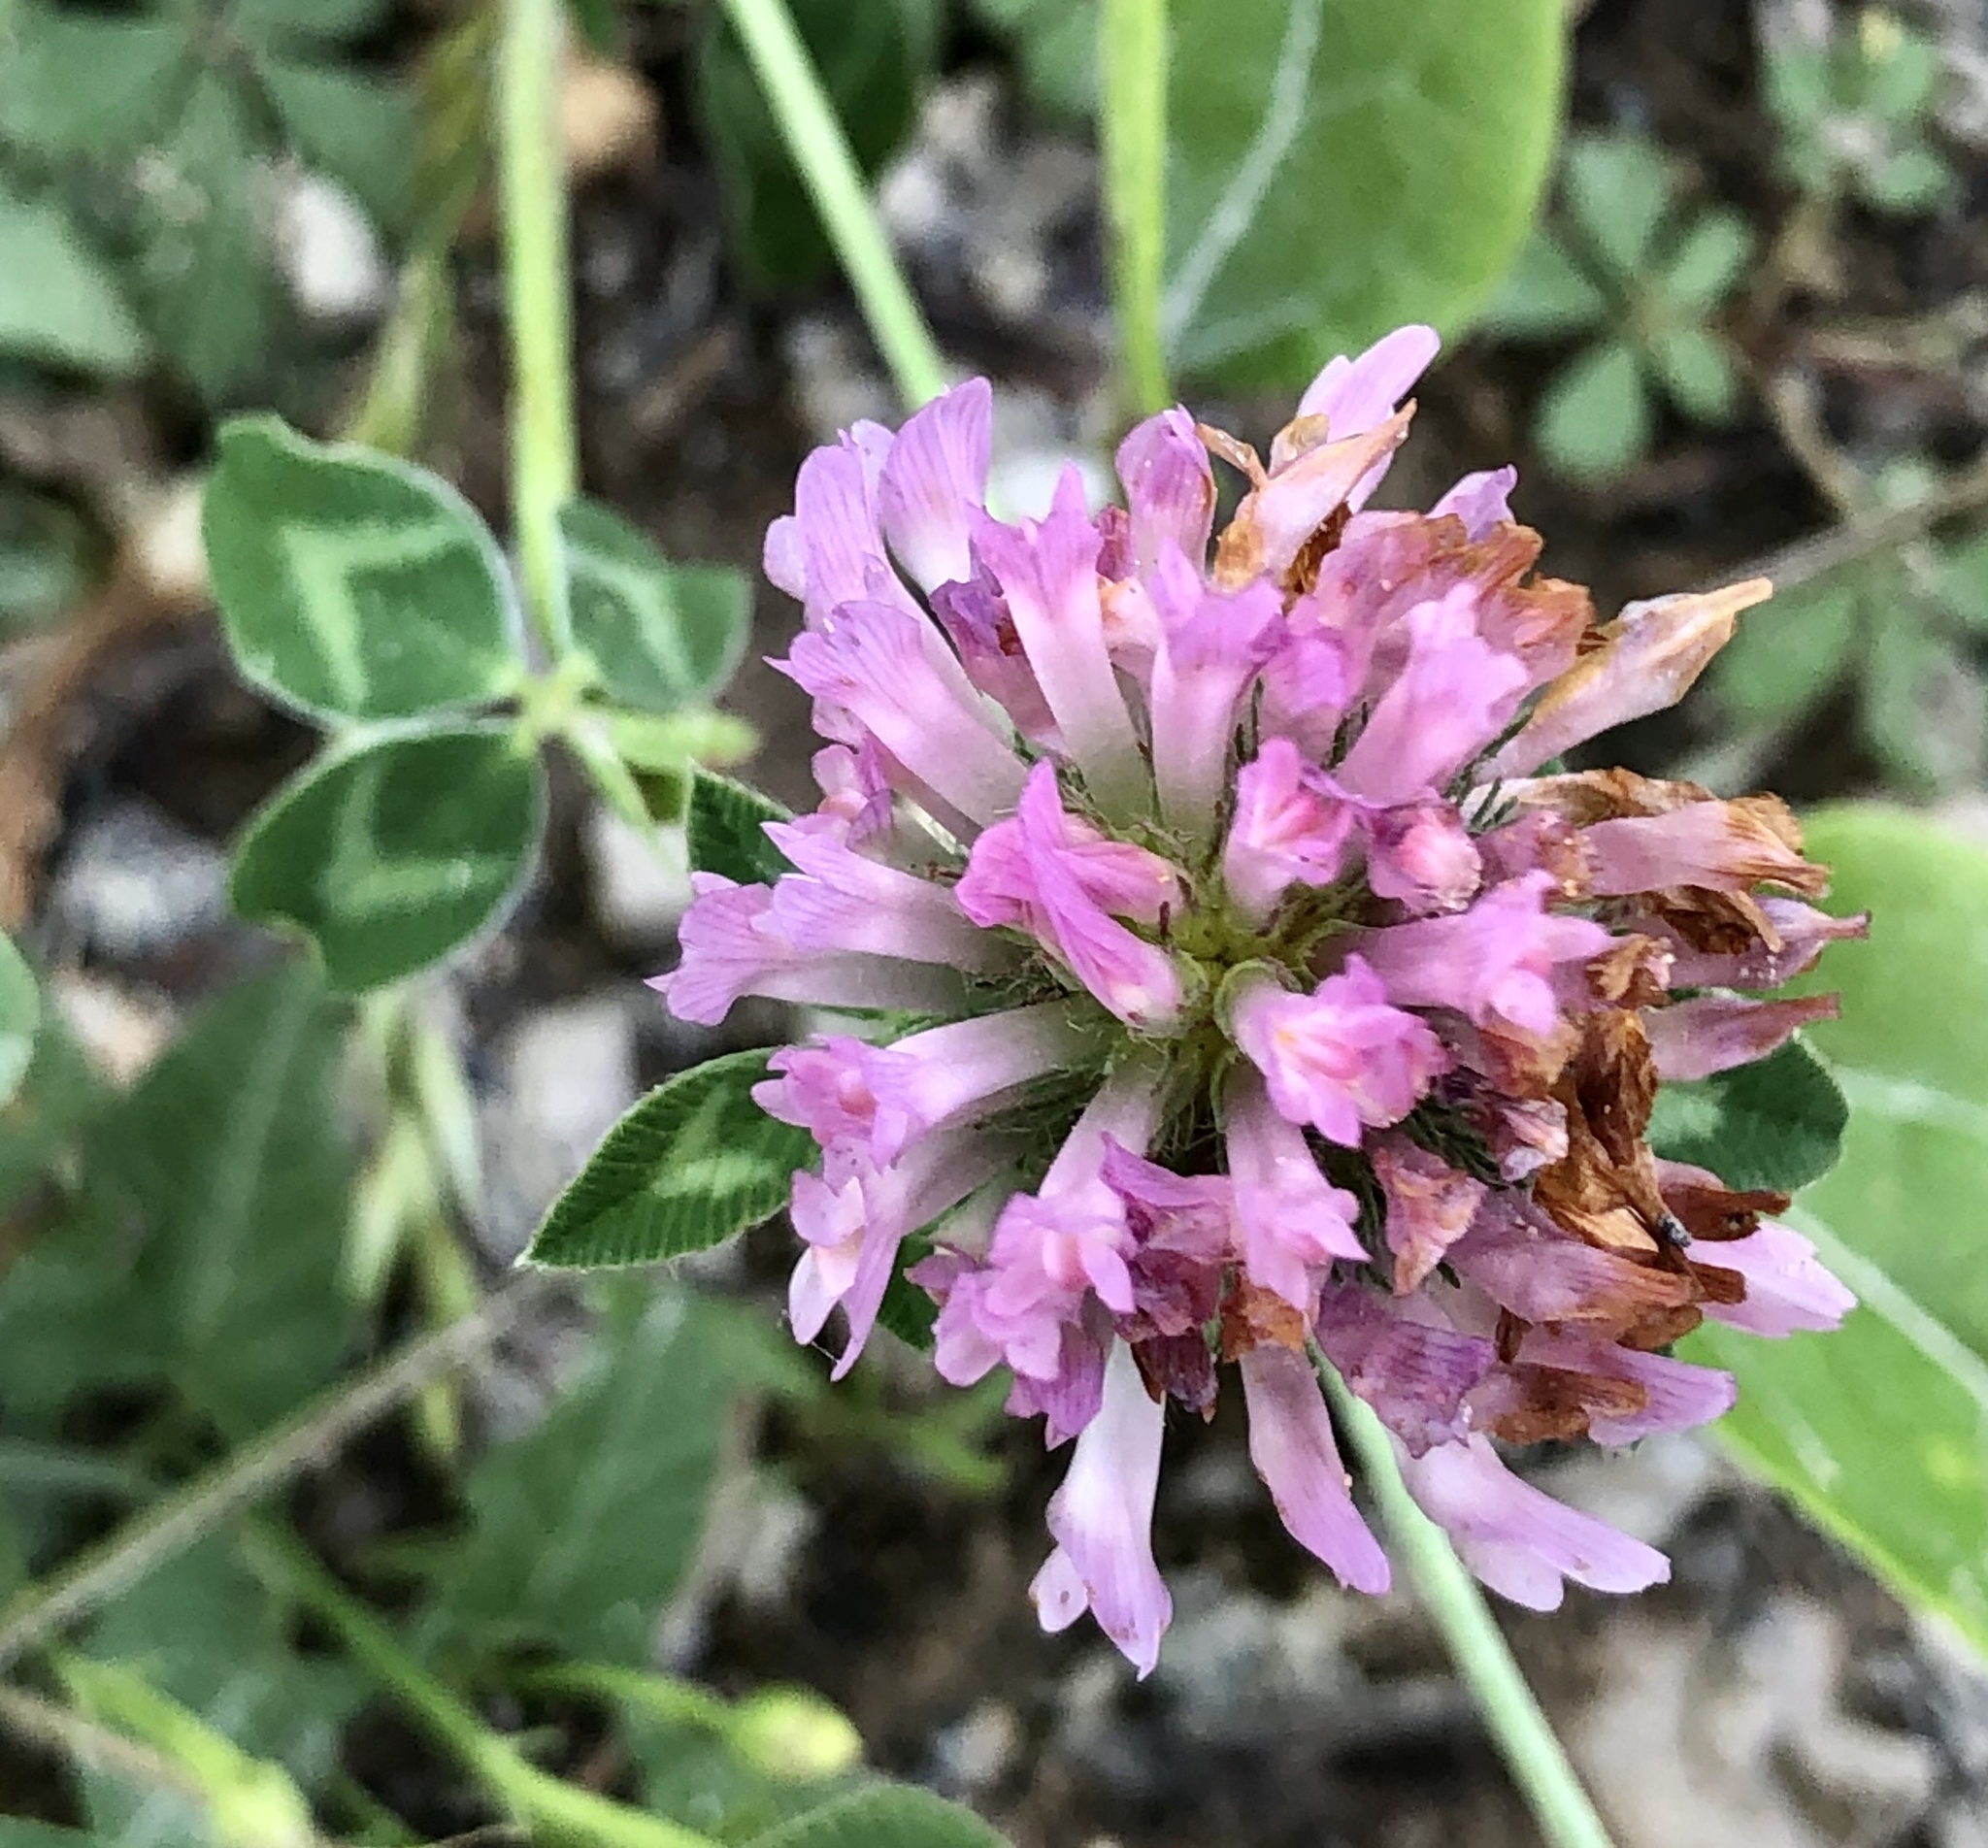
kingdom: Plantae
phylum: Tracheophyta
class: Magnoliopsida
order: Fabales
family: Fabaceae
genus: Trifolium
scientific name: Trifolium pratense
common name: Red clover
